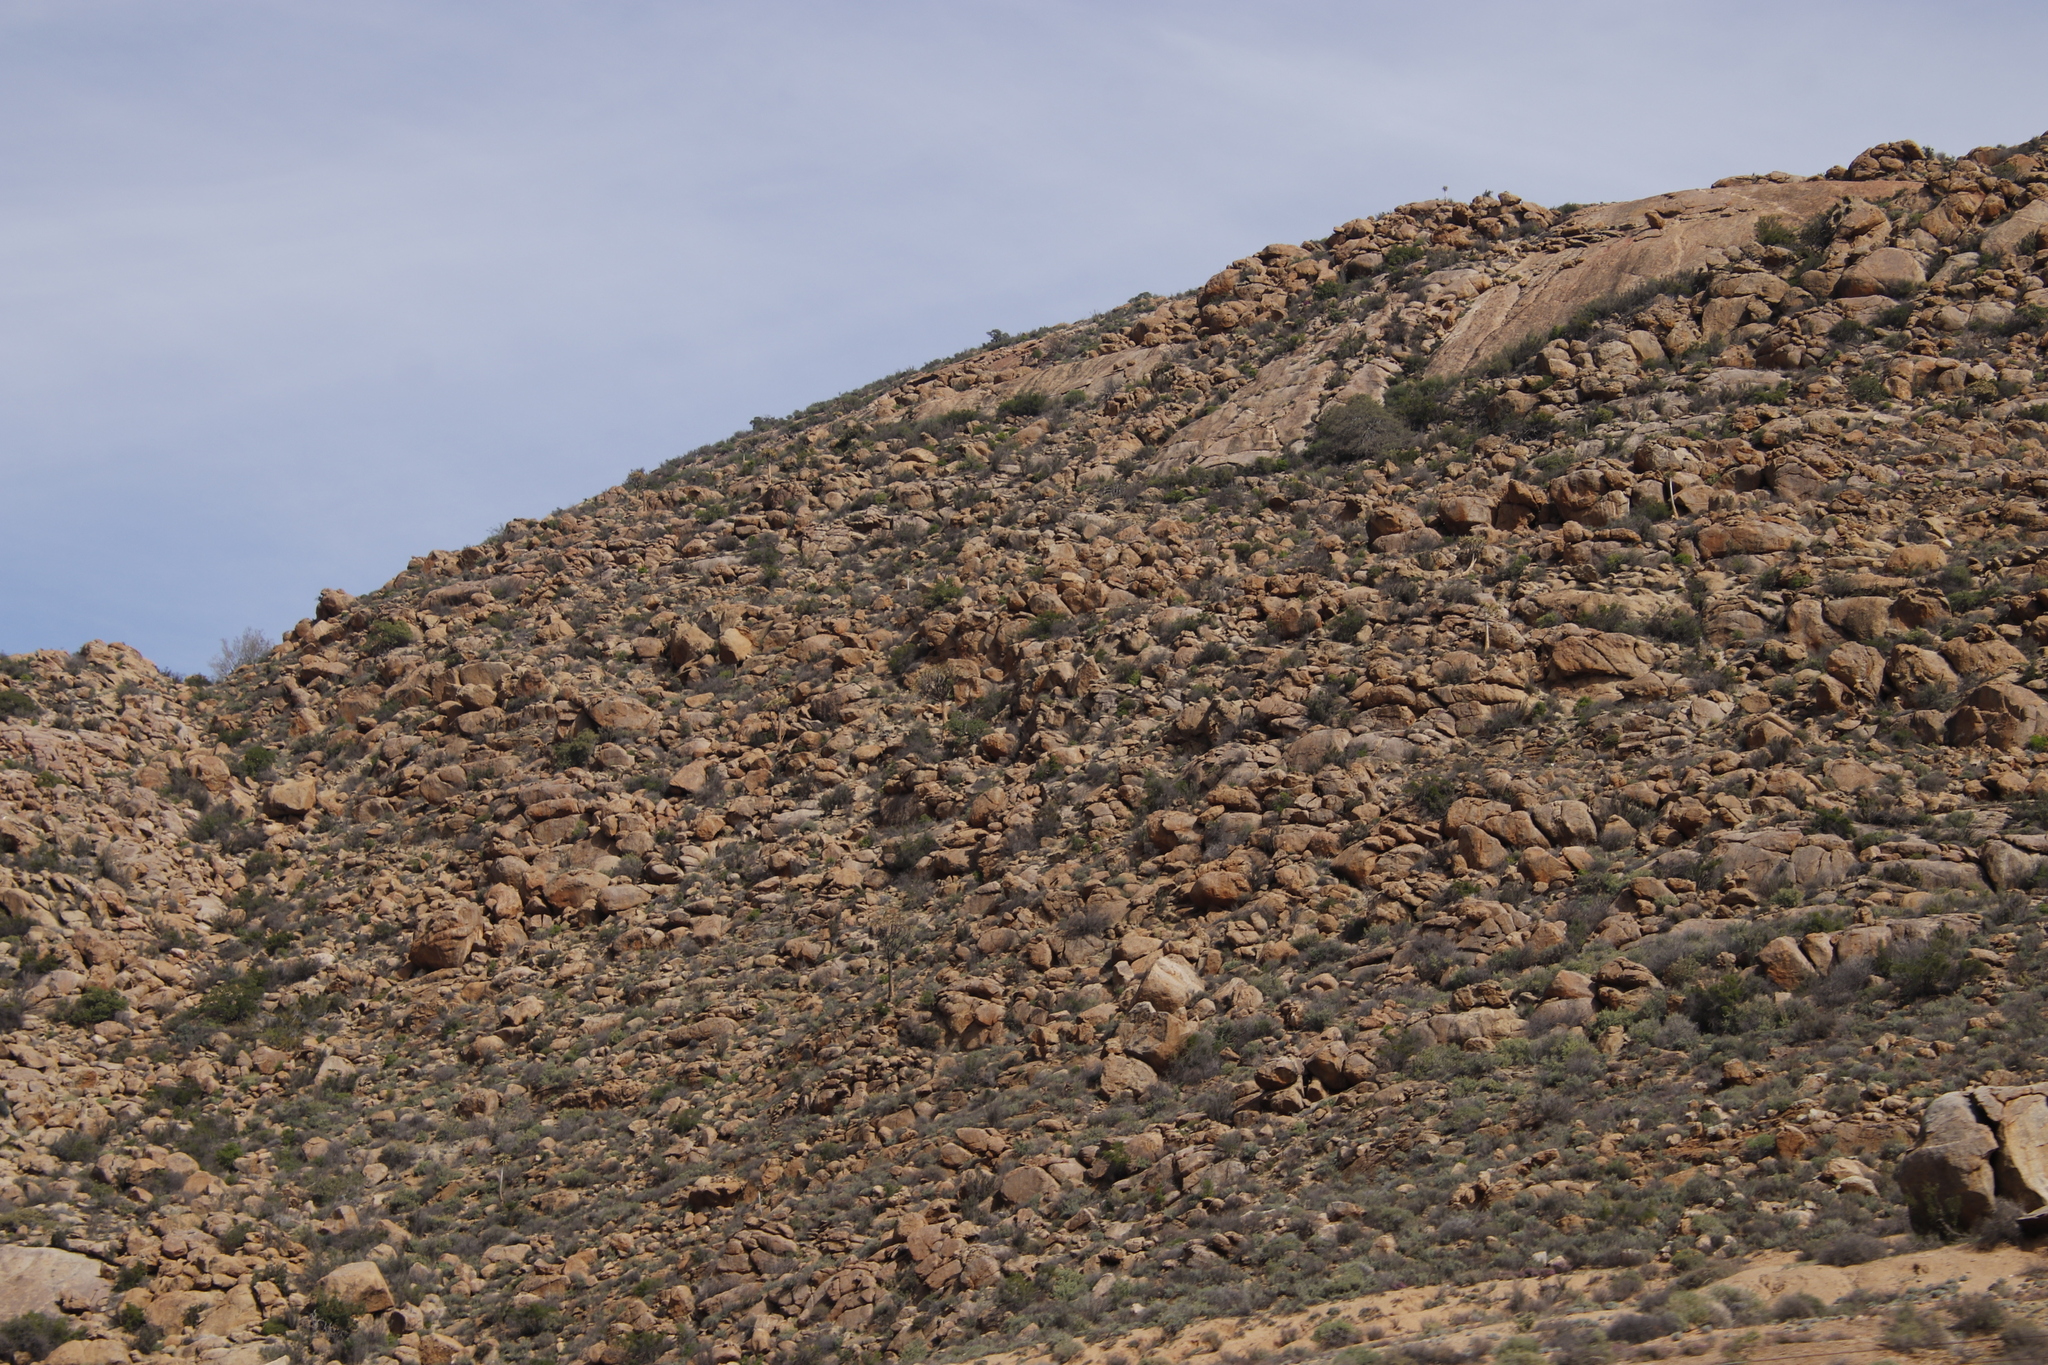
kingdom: Plantae
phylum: Tracheophyta
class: Liliopsida
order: Asparagales
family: Asphodelaceae
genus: Aloidendron
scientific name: Aloidendron dichotomum
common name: Quiver tree
